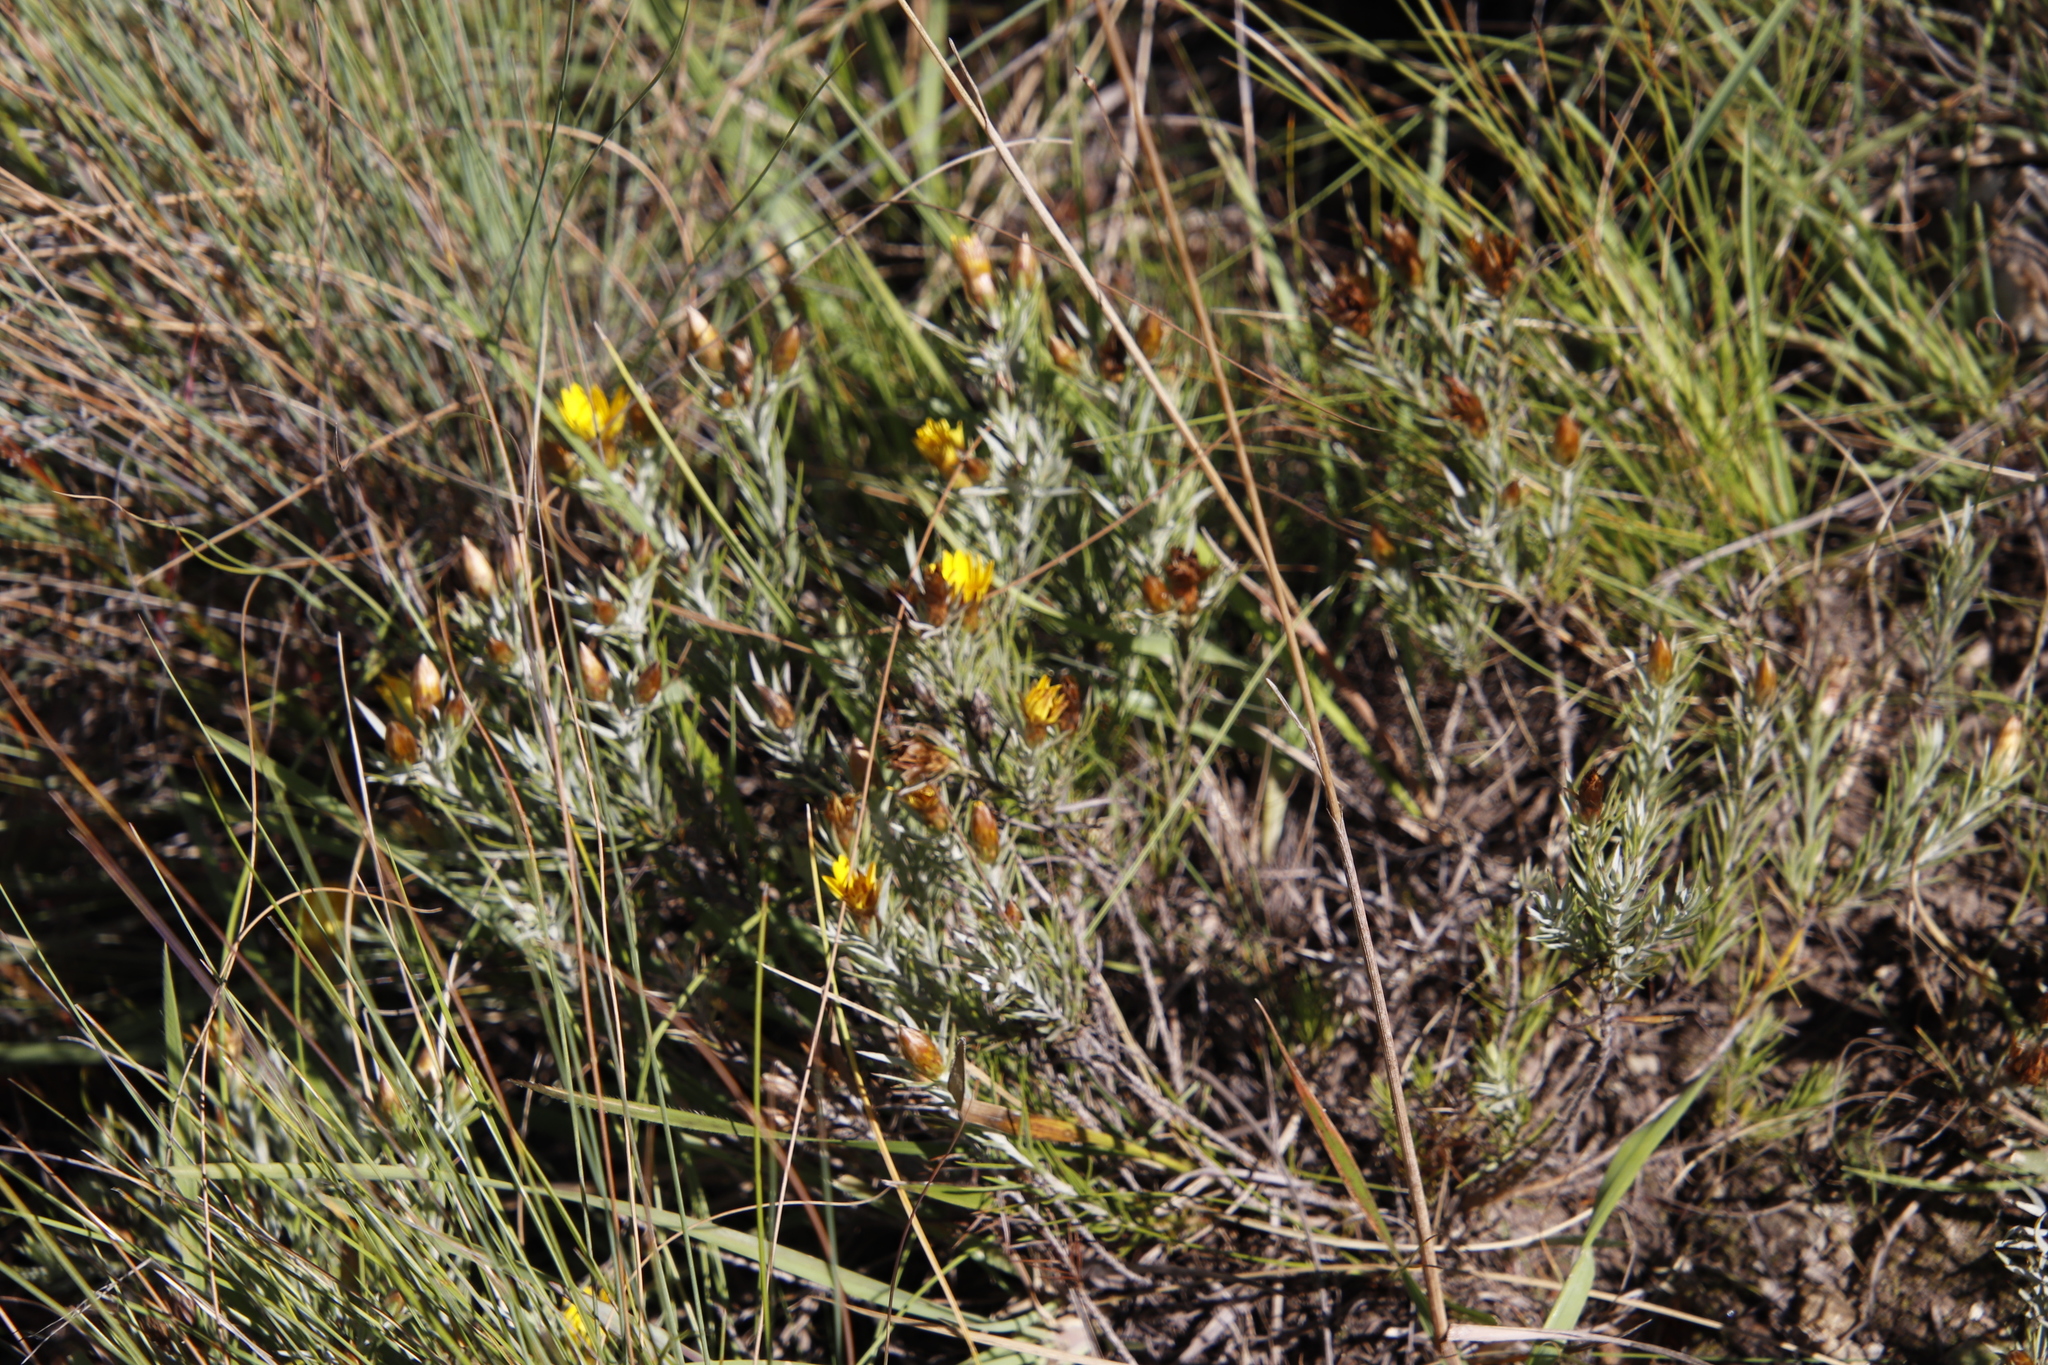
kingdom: Plantae
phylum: Tracheophyta
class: Magnoliopsida
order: Asterales
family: Asteraceae
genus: Oedera
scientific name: Oedera acerosa
